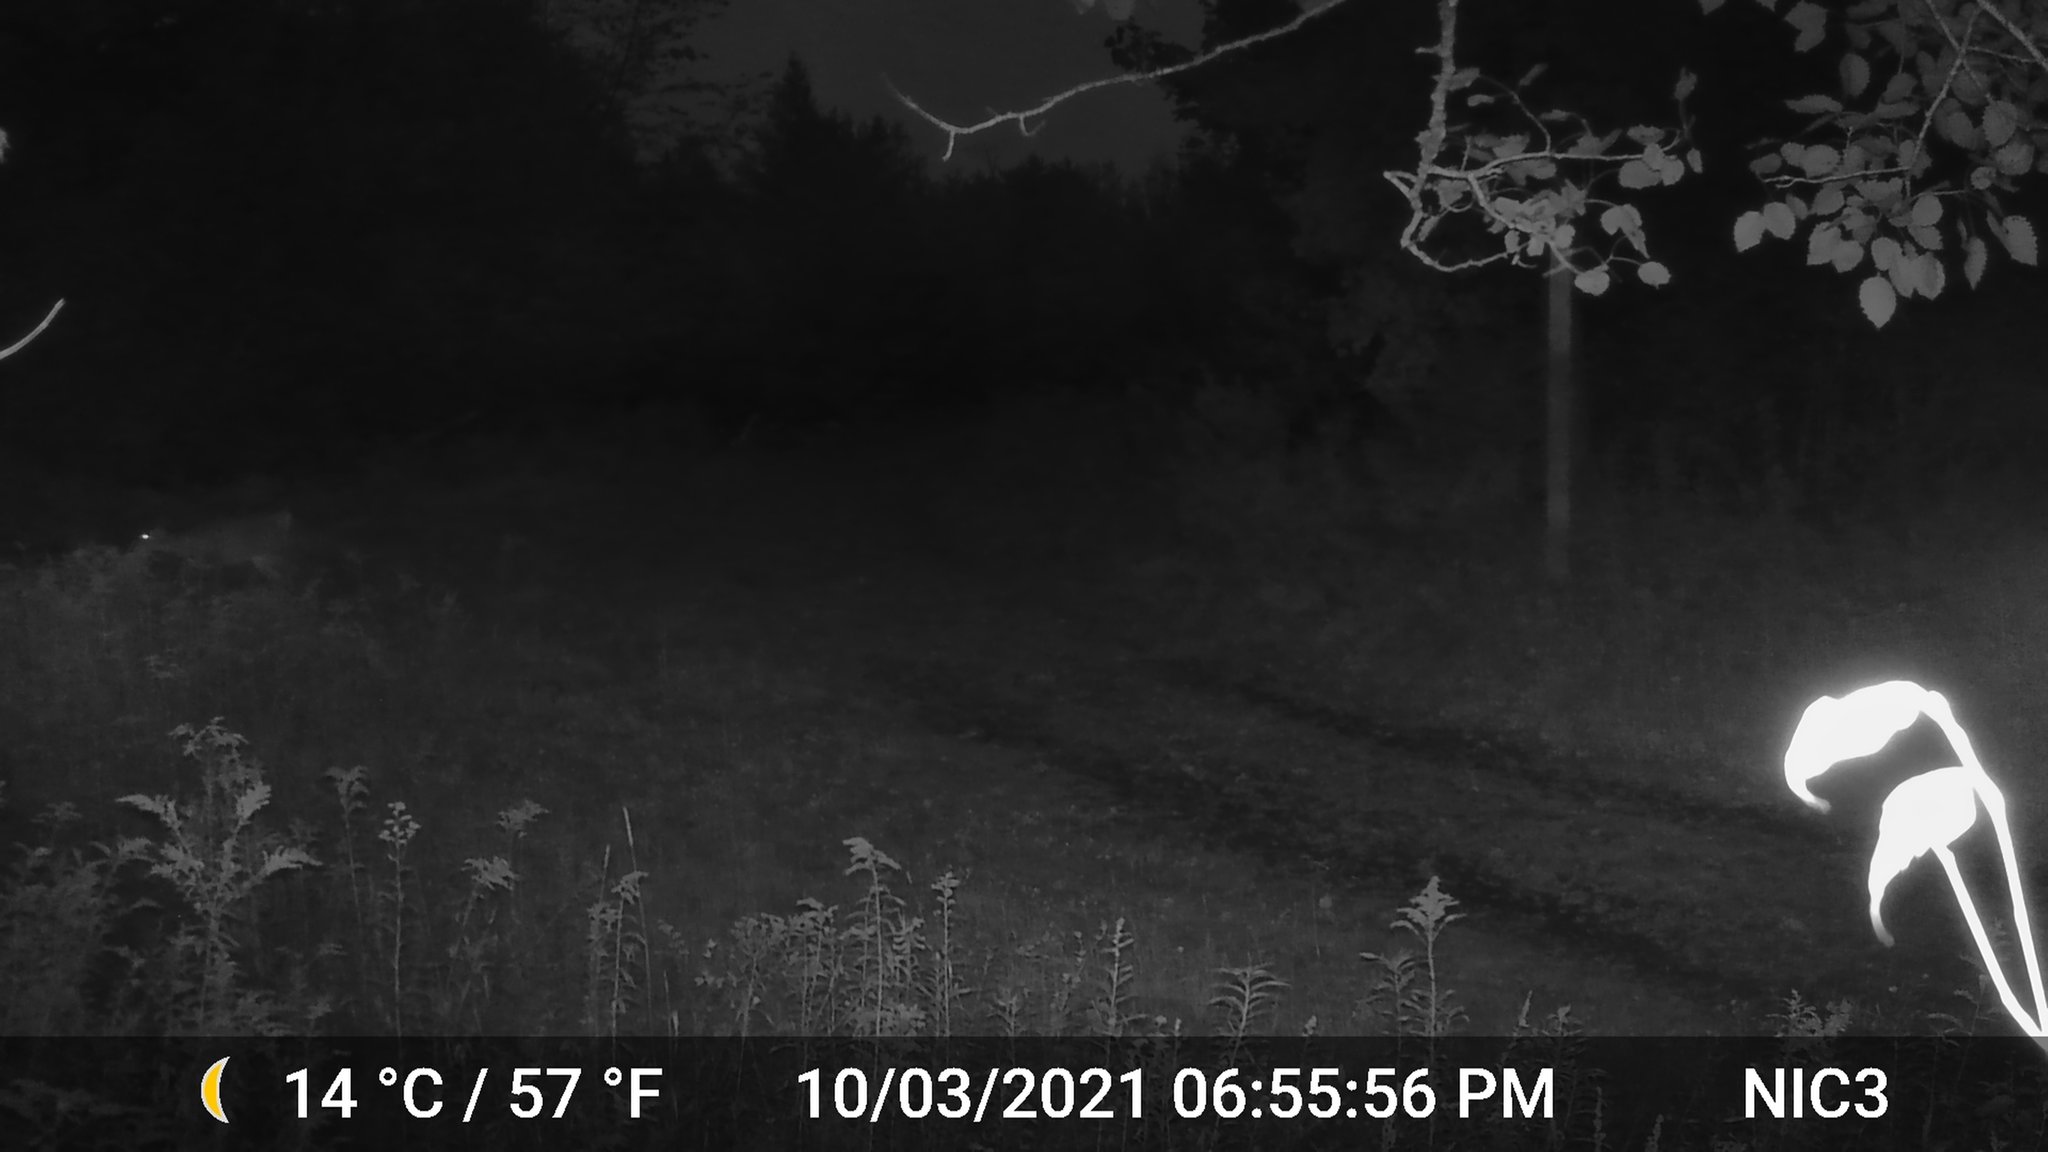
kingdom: Animalia
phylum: Chordata
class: Mammalia
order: Artiodactyla
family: Cervidae
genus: Odocoileus
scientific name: Odocoileus virginianus
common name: White-tailed deer
